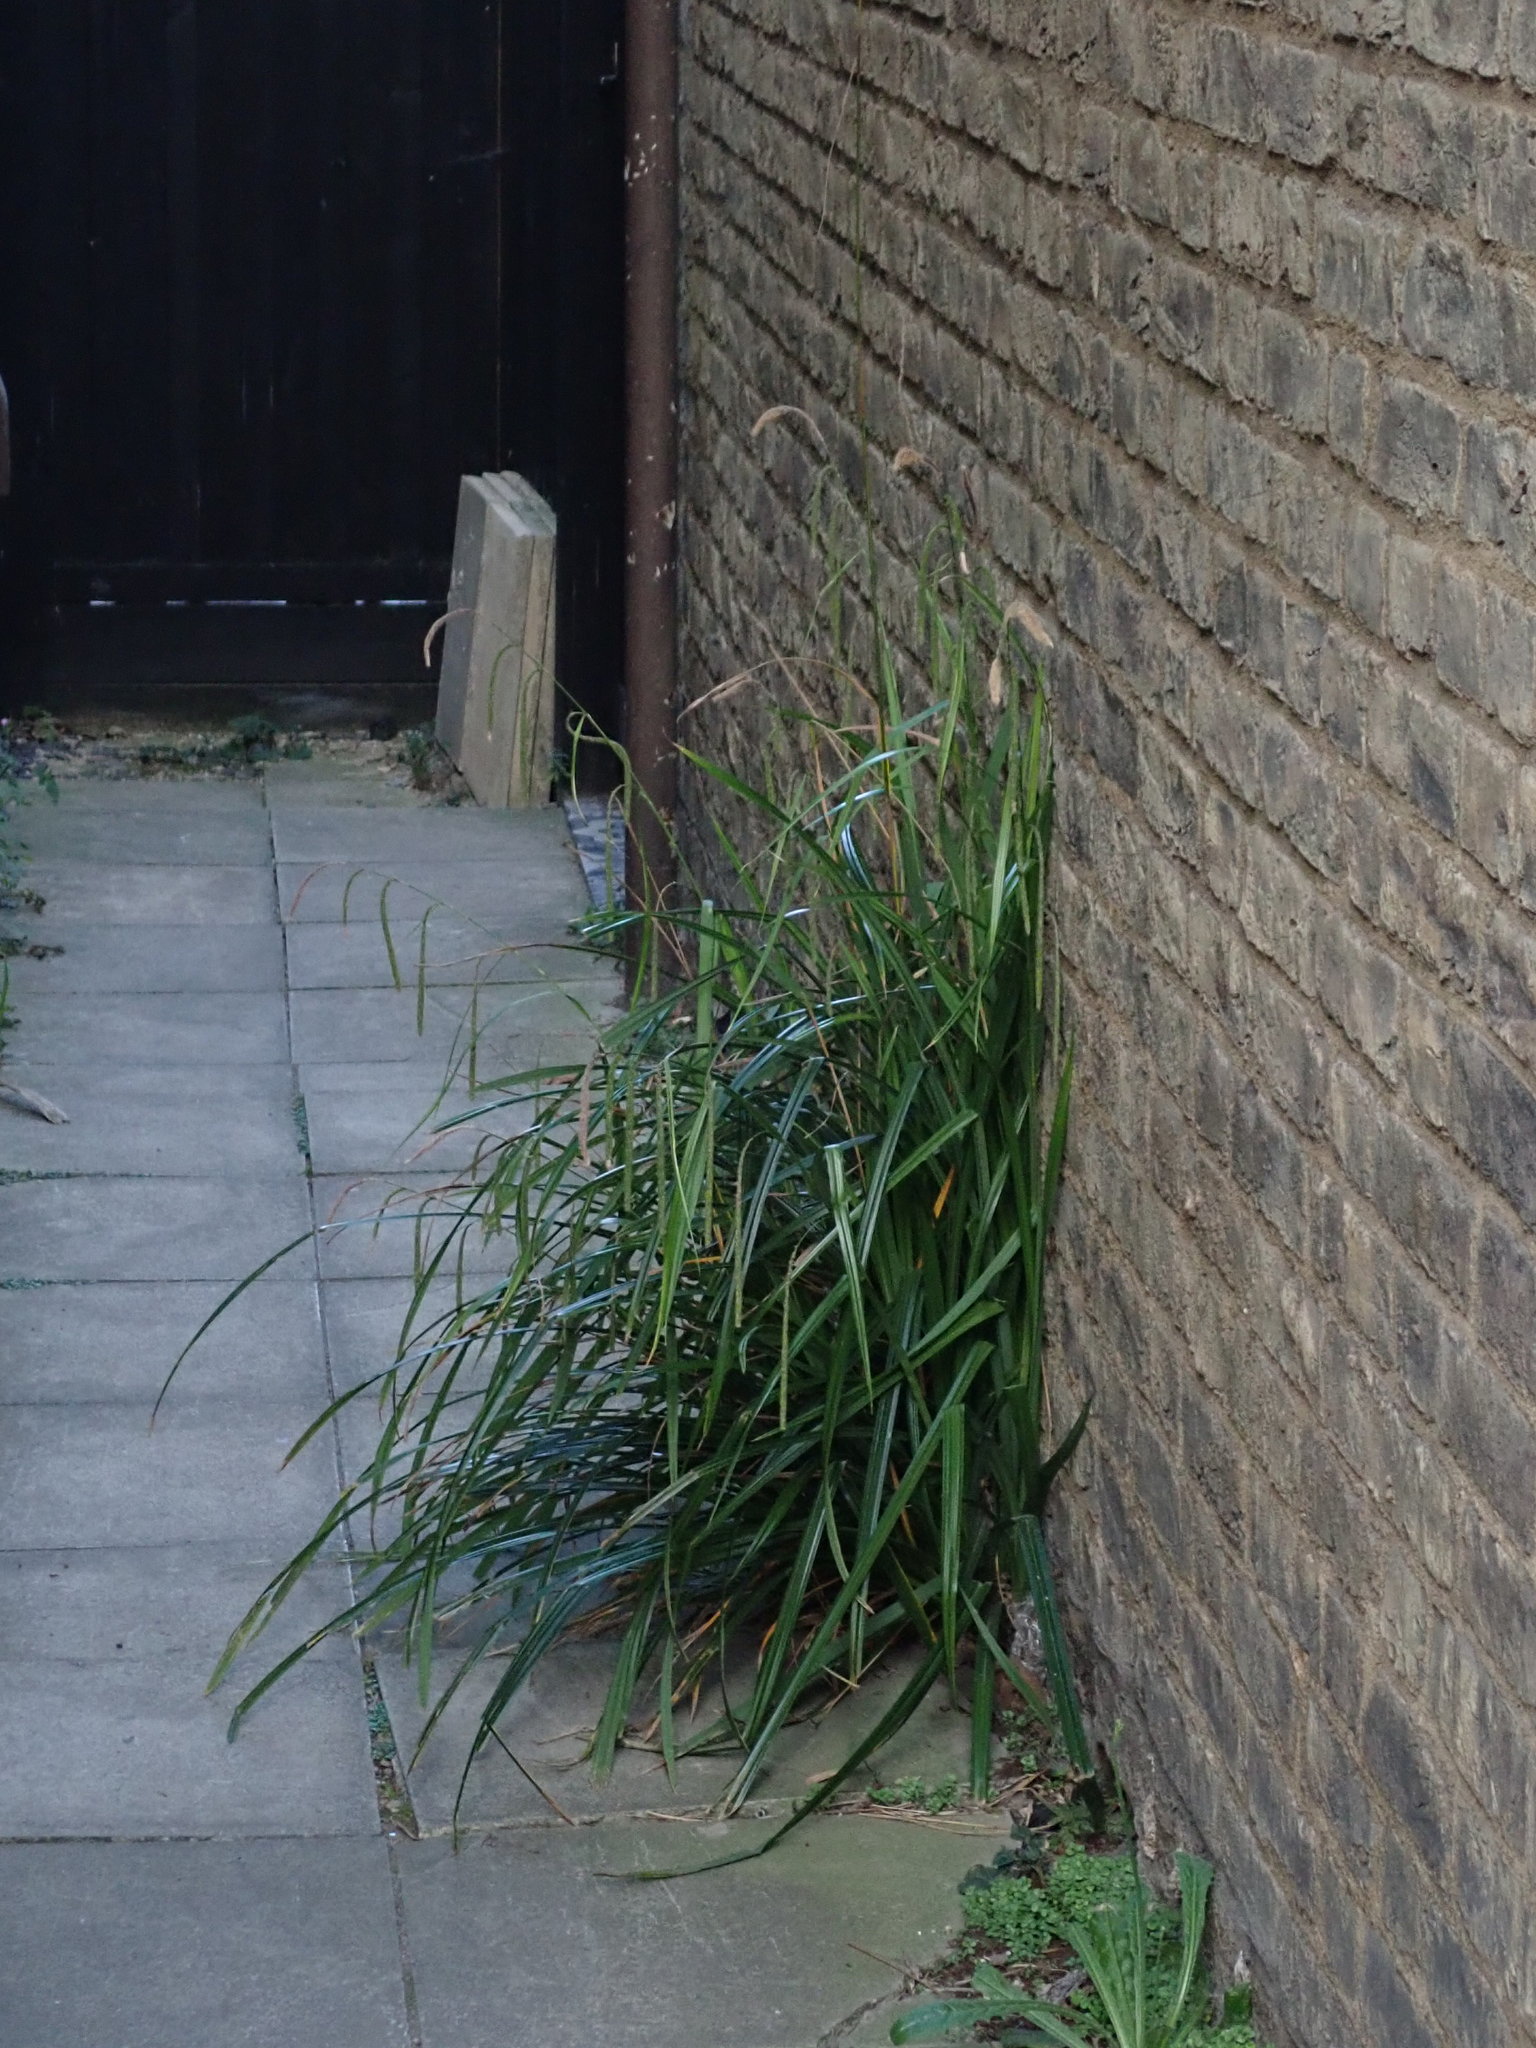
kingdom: Plantae
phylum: Tracheophyta
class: Liliopsida
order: Poales
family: Cyperaceae
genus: Carex
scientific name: Carex pendula
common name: Pendulous sedge
